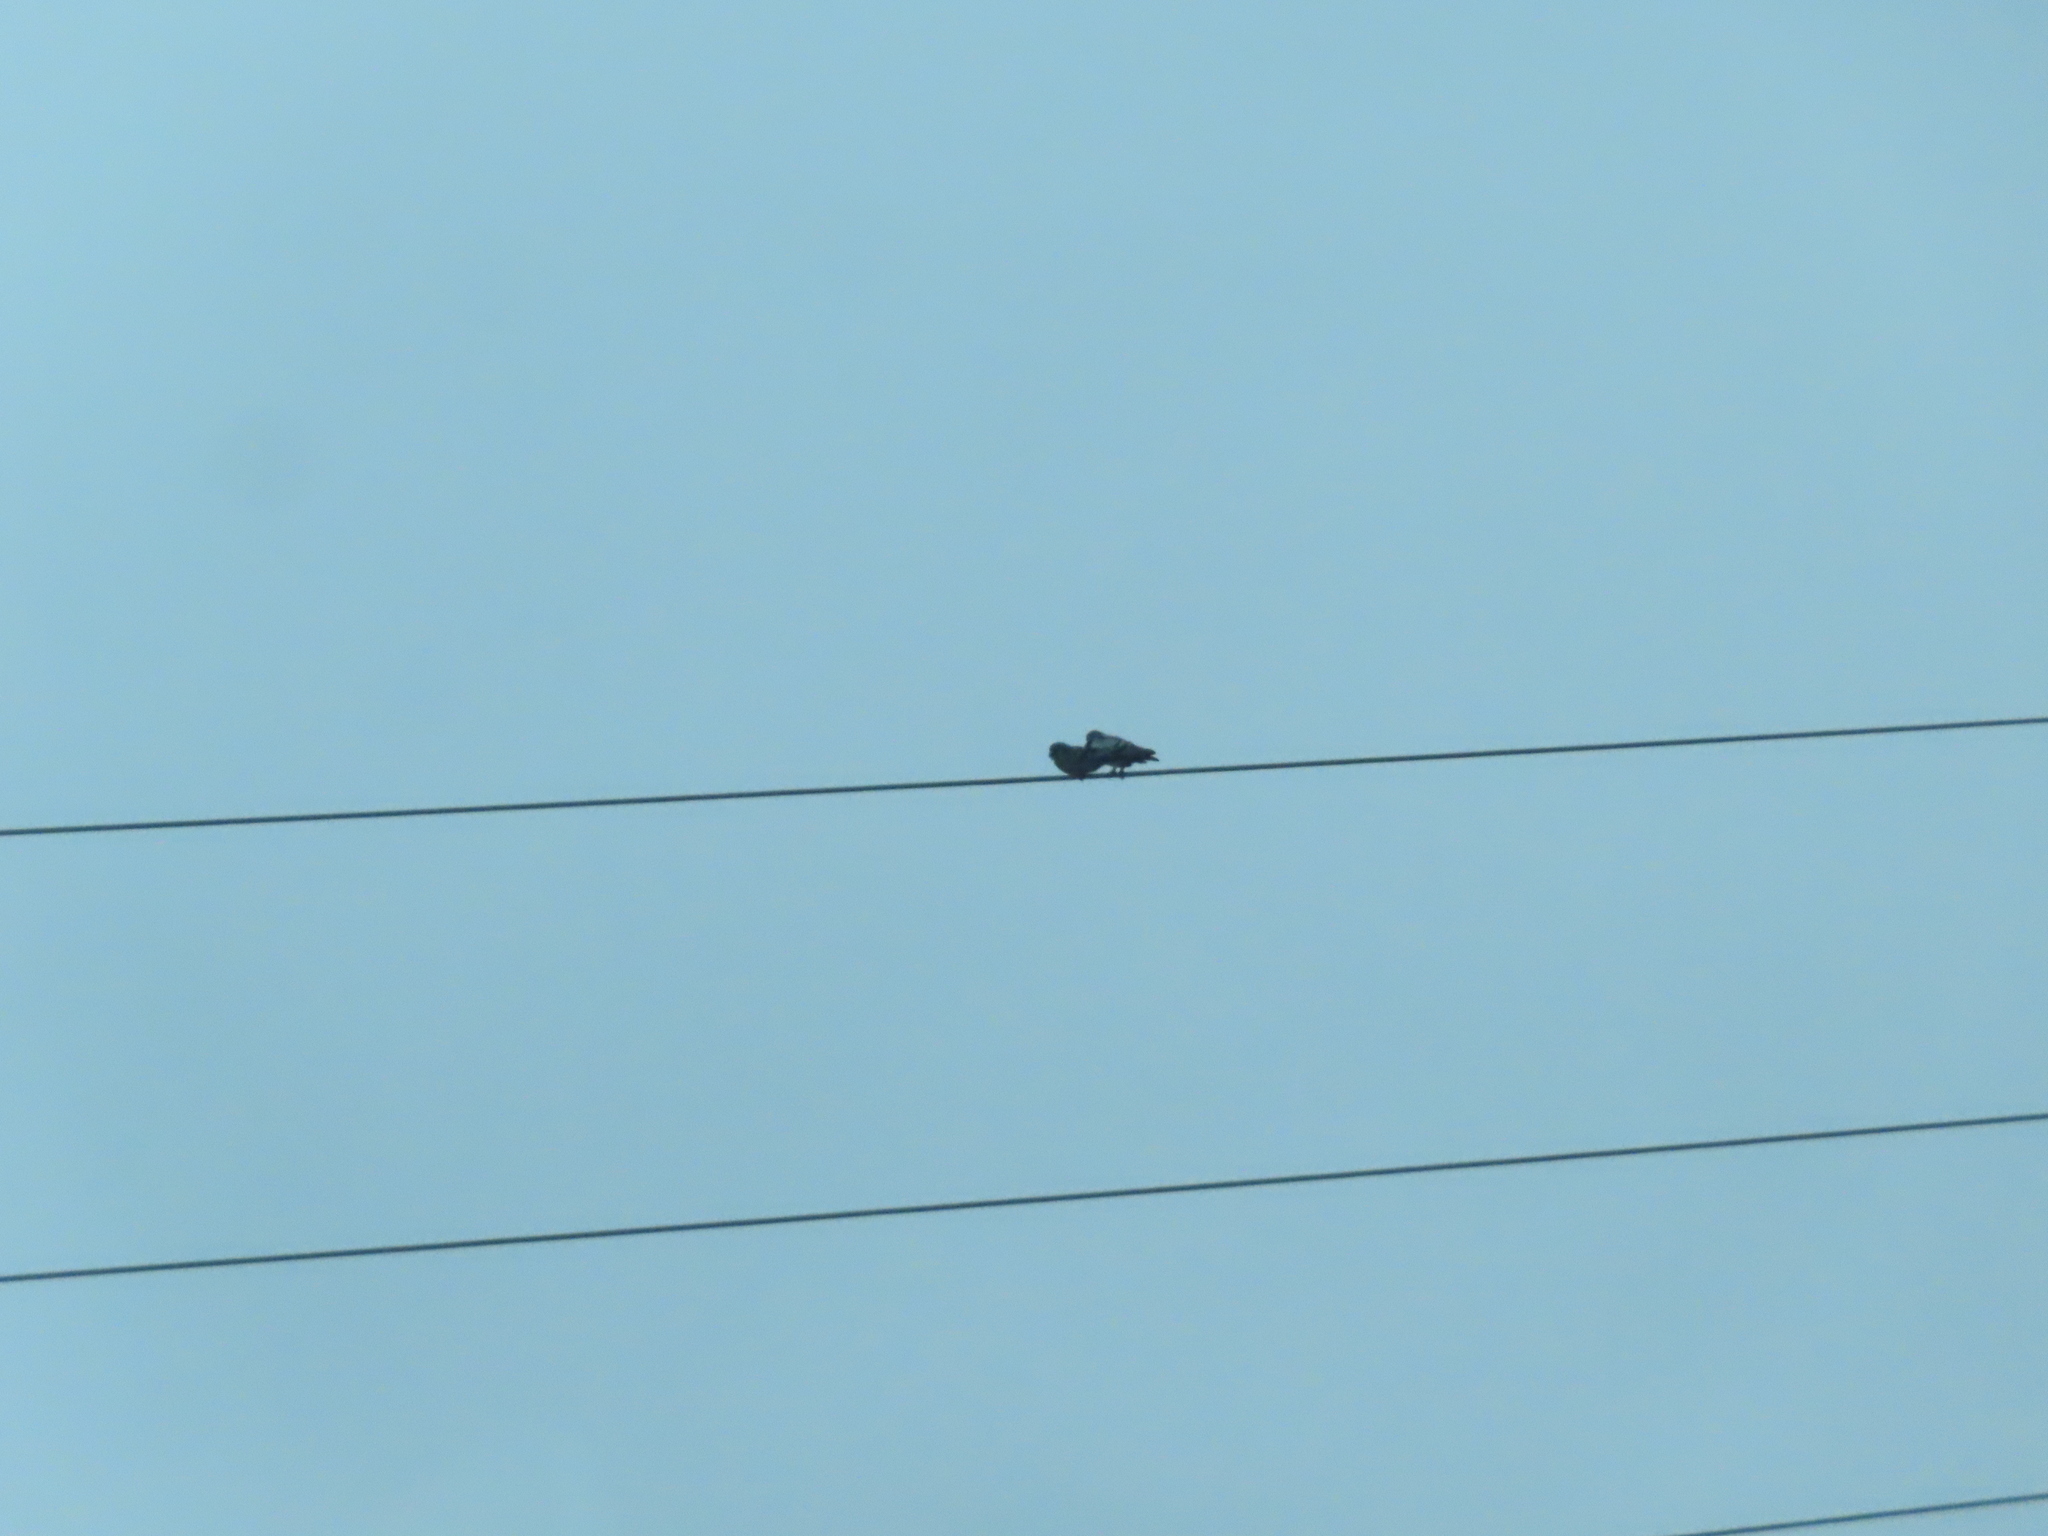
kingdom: Animalia
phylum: Chordata
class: Aves
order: Columbiformes
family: Columbidae
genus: Columba
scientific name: Columba livia
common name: Rock pigeon
